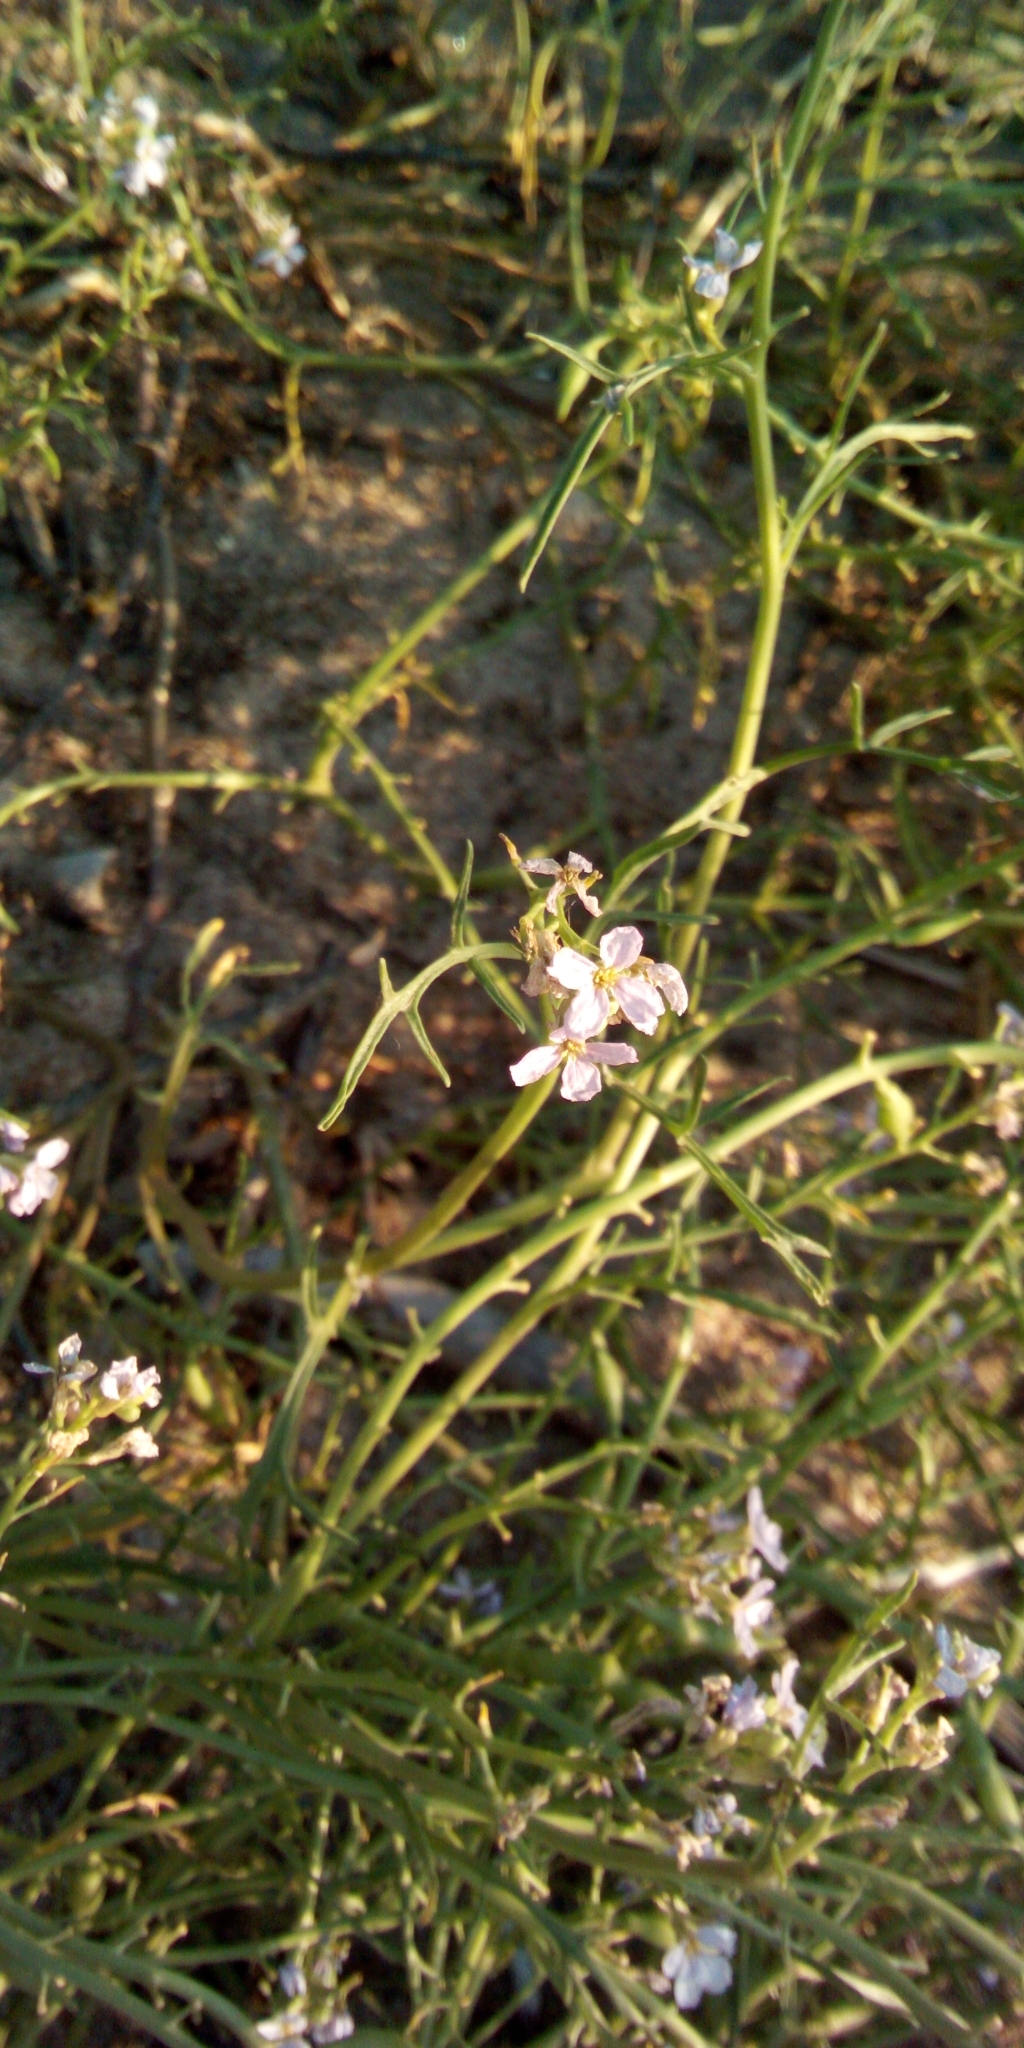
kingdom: Plantae
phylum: Tracheophyta
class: Magnoliopsida
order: Brassicales
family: Brassicaceae
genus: Cakile
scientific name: Cakile maritima
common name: Sea rocket
